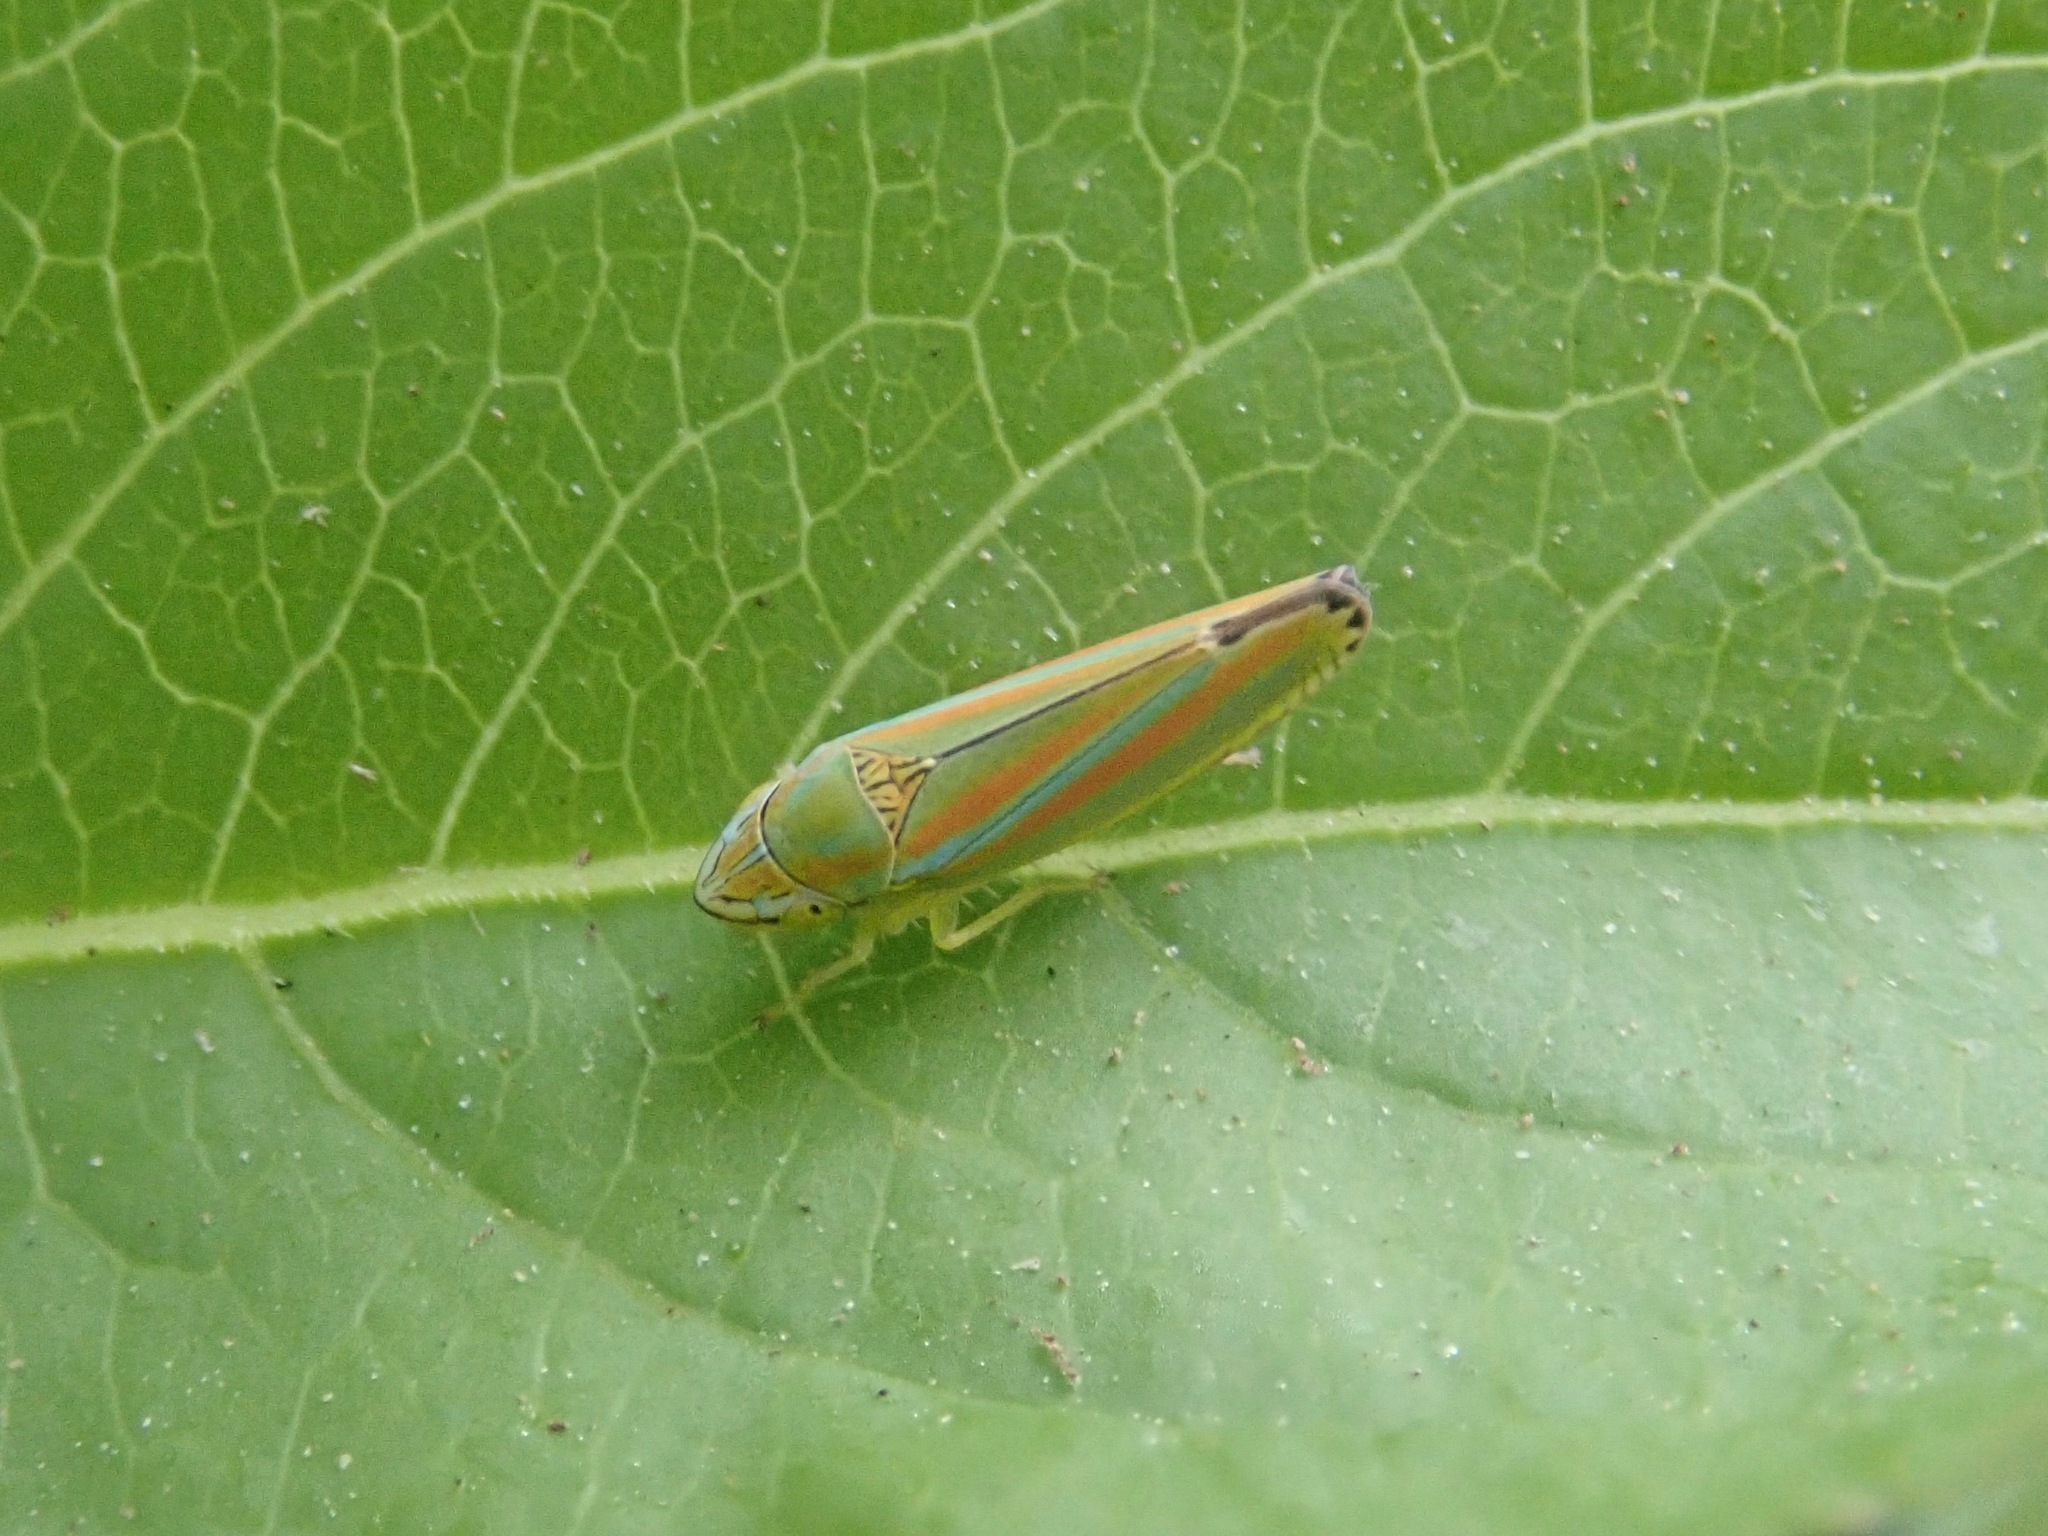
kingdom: Animalia
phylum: Arthropoda
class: Insecta
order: Hemiptera
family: Cicadellidae
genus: Graphocephala
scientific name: Graphocephala versuta
